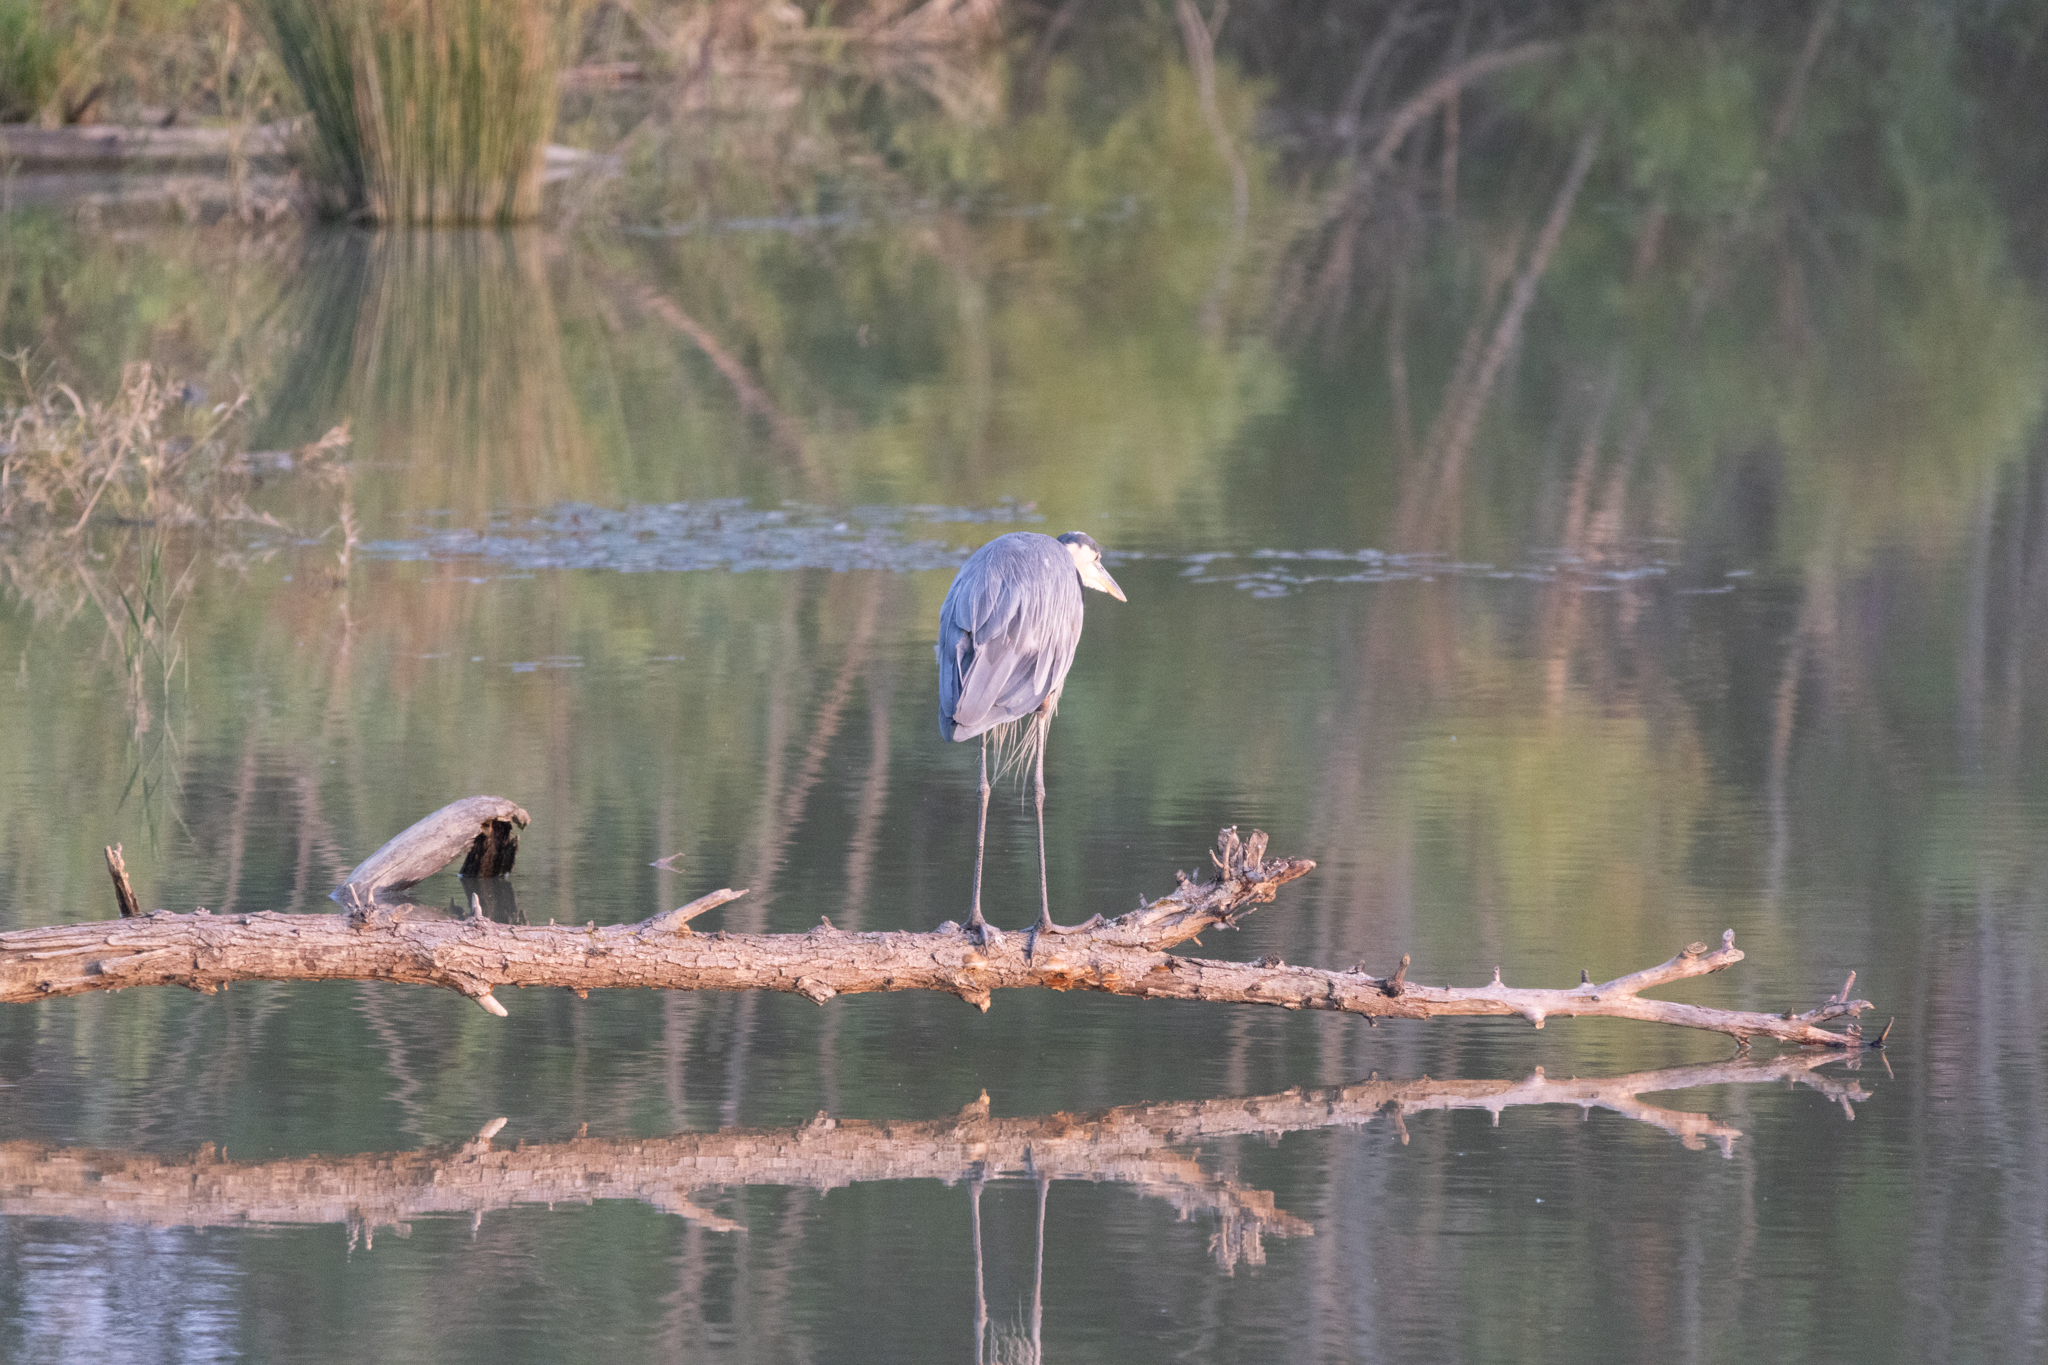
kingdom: Animalia
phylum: Chordata
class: Aves
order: Pelecaniformes
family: Ardeidae
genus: Ardea
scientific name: Ardea herodias
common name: Great blue heron
